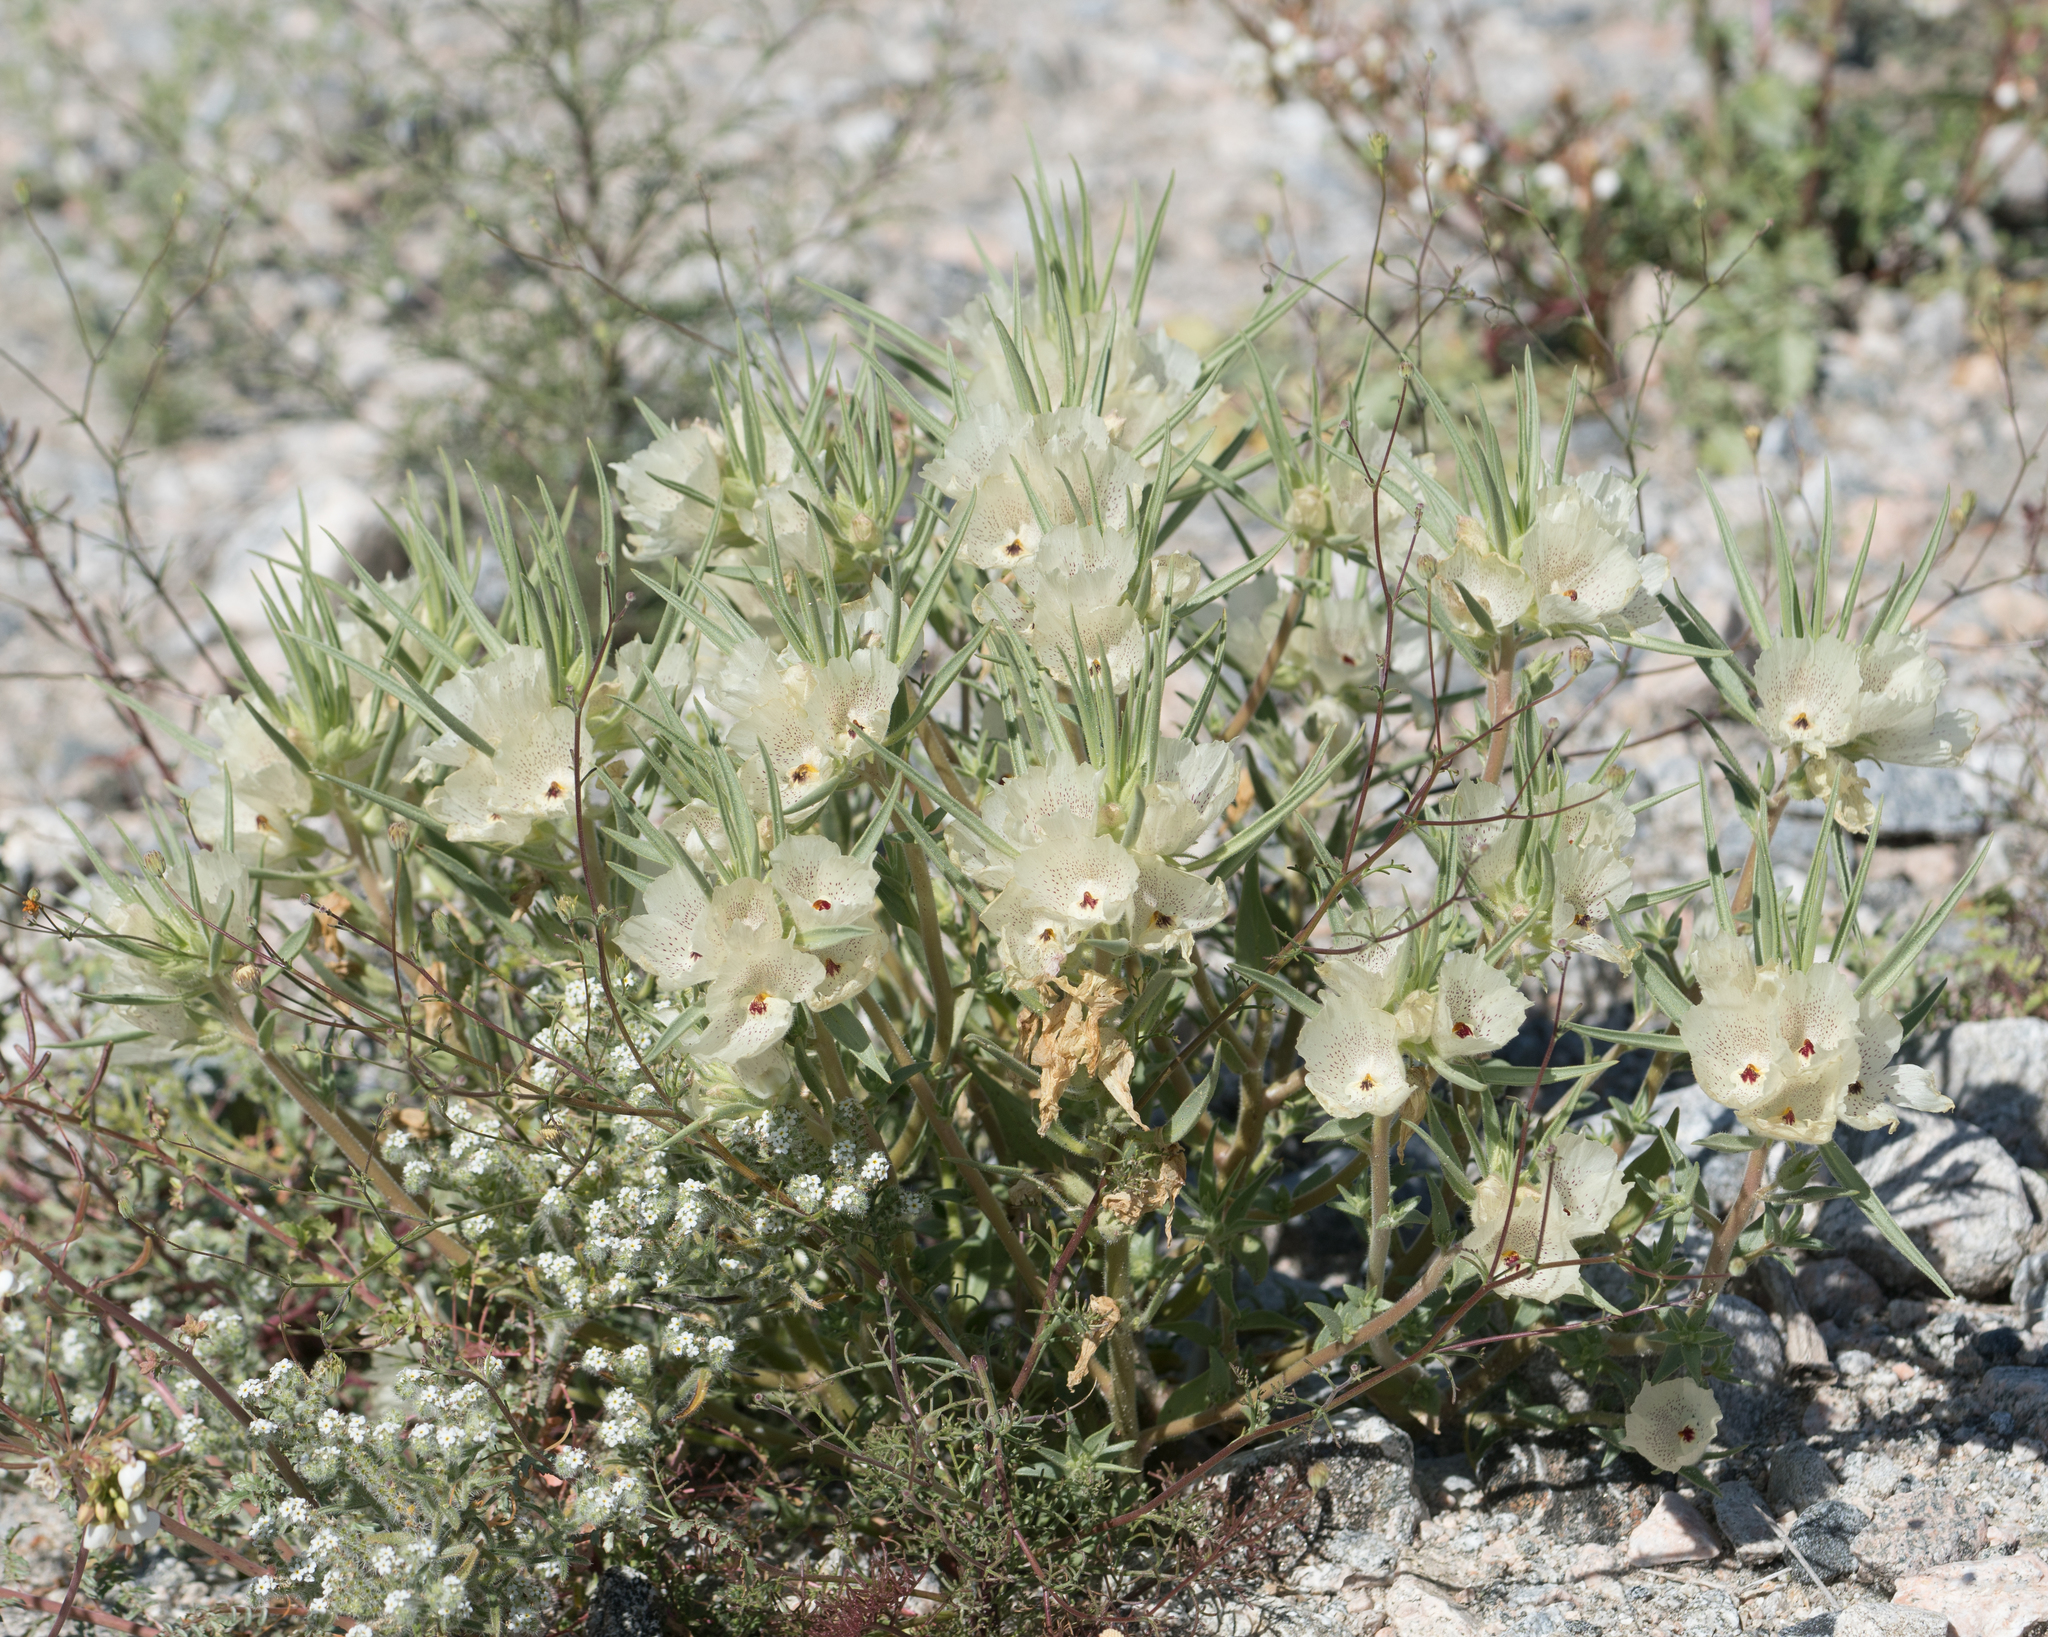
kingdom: Plantae
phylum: Tracheophyta
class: Magnoliopsida
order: Lamiales
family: Plantaginaceae
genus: Mohavea
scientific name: Mohavea confertiflora
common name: Ghost flower
